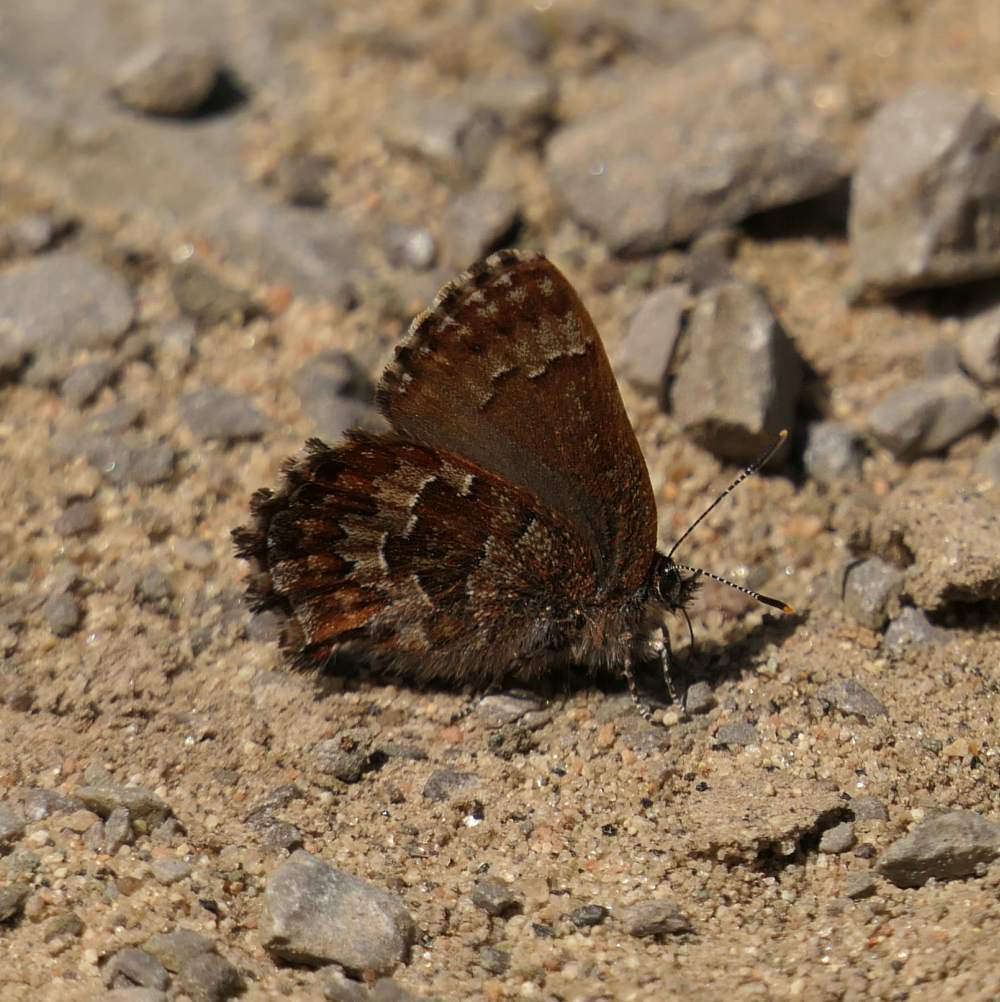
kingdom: Animalia
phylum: Arthropoda
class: Insecta
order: Lepidoptera
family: Lycaenidae
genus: Incisalia
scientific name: Incisalia niphon
